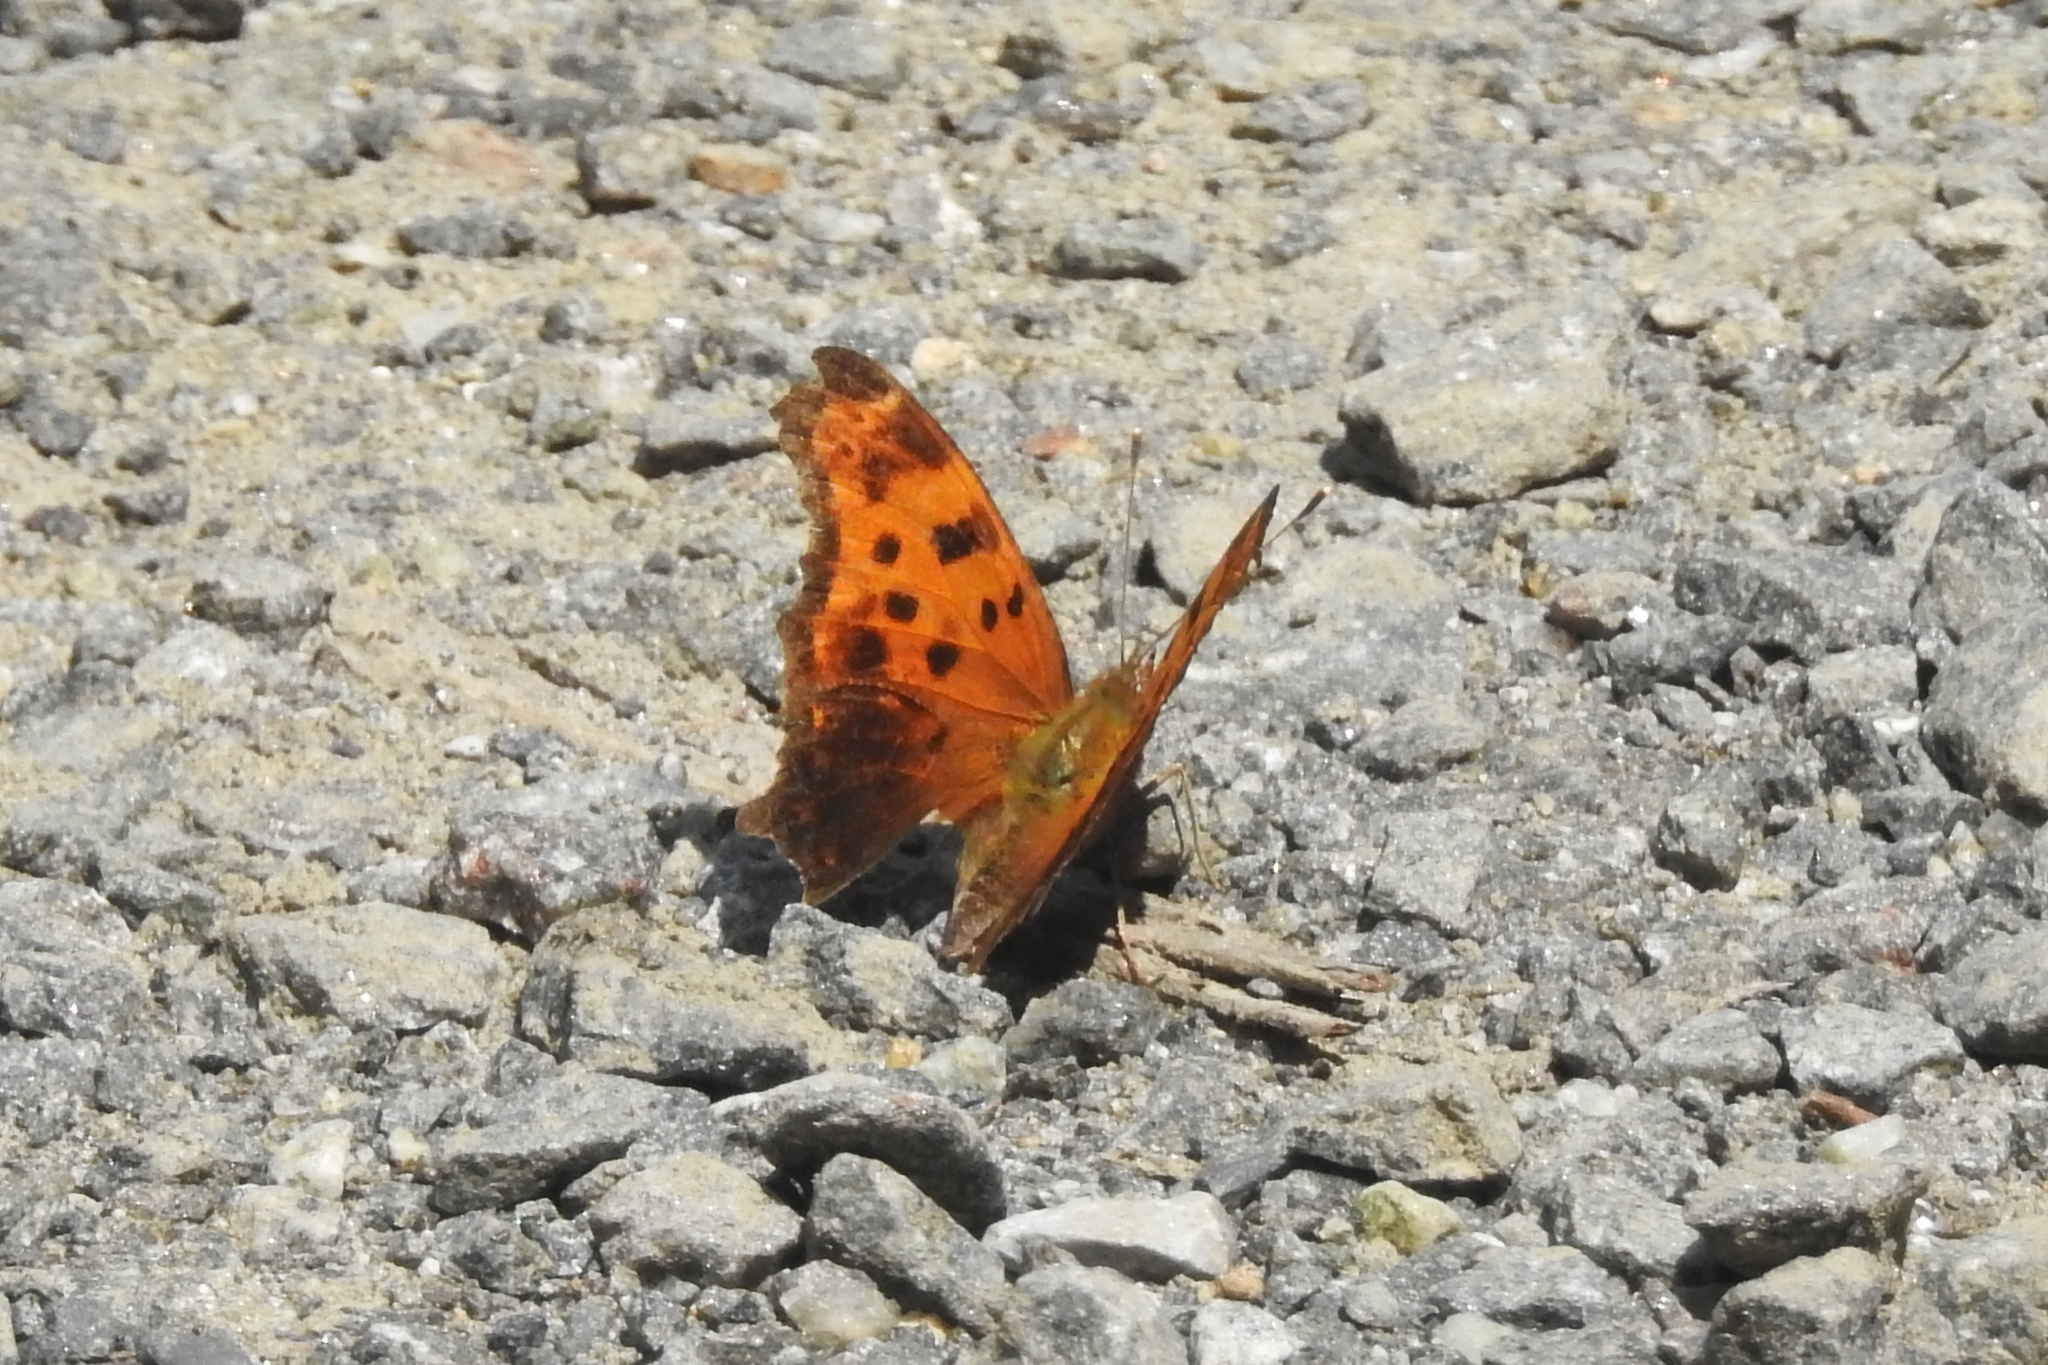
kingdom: Animalia
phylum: Arthropoda
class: Insecta
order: Lepidoptera
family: Nymphalidae
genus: Polygonia
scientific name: Polygonia comma
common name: Eastern comma
